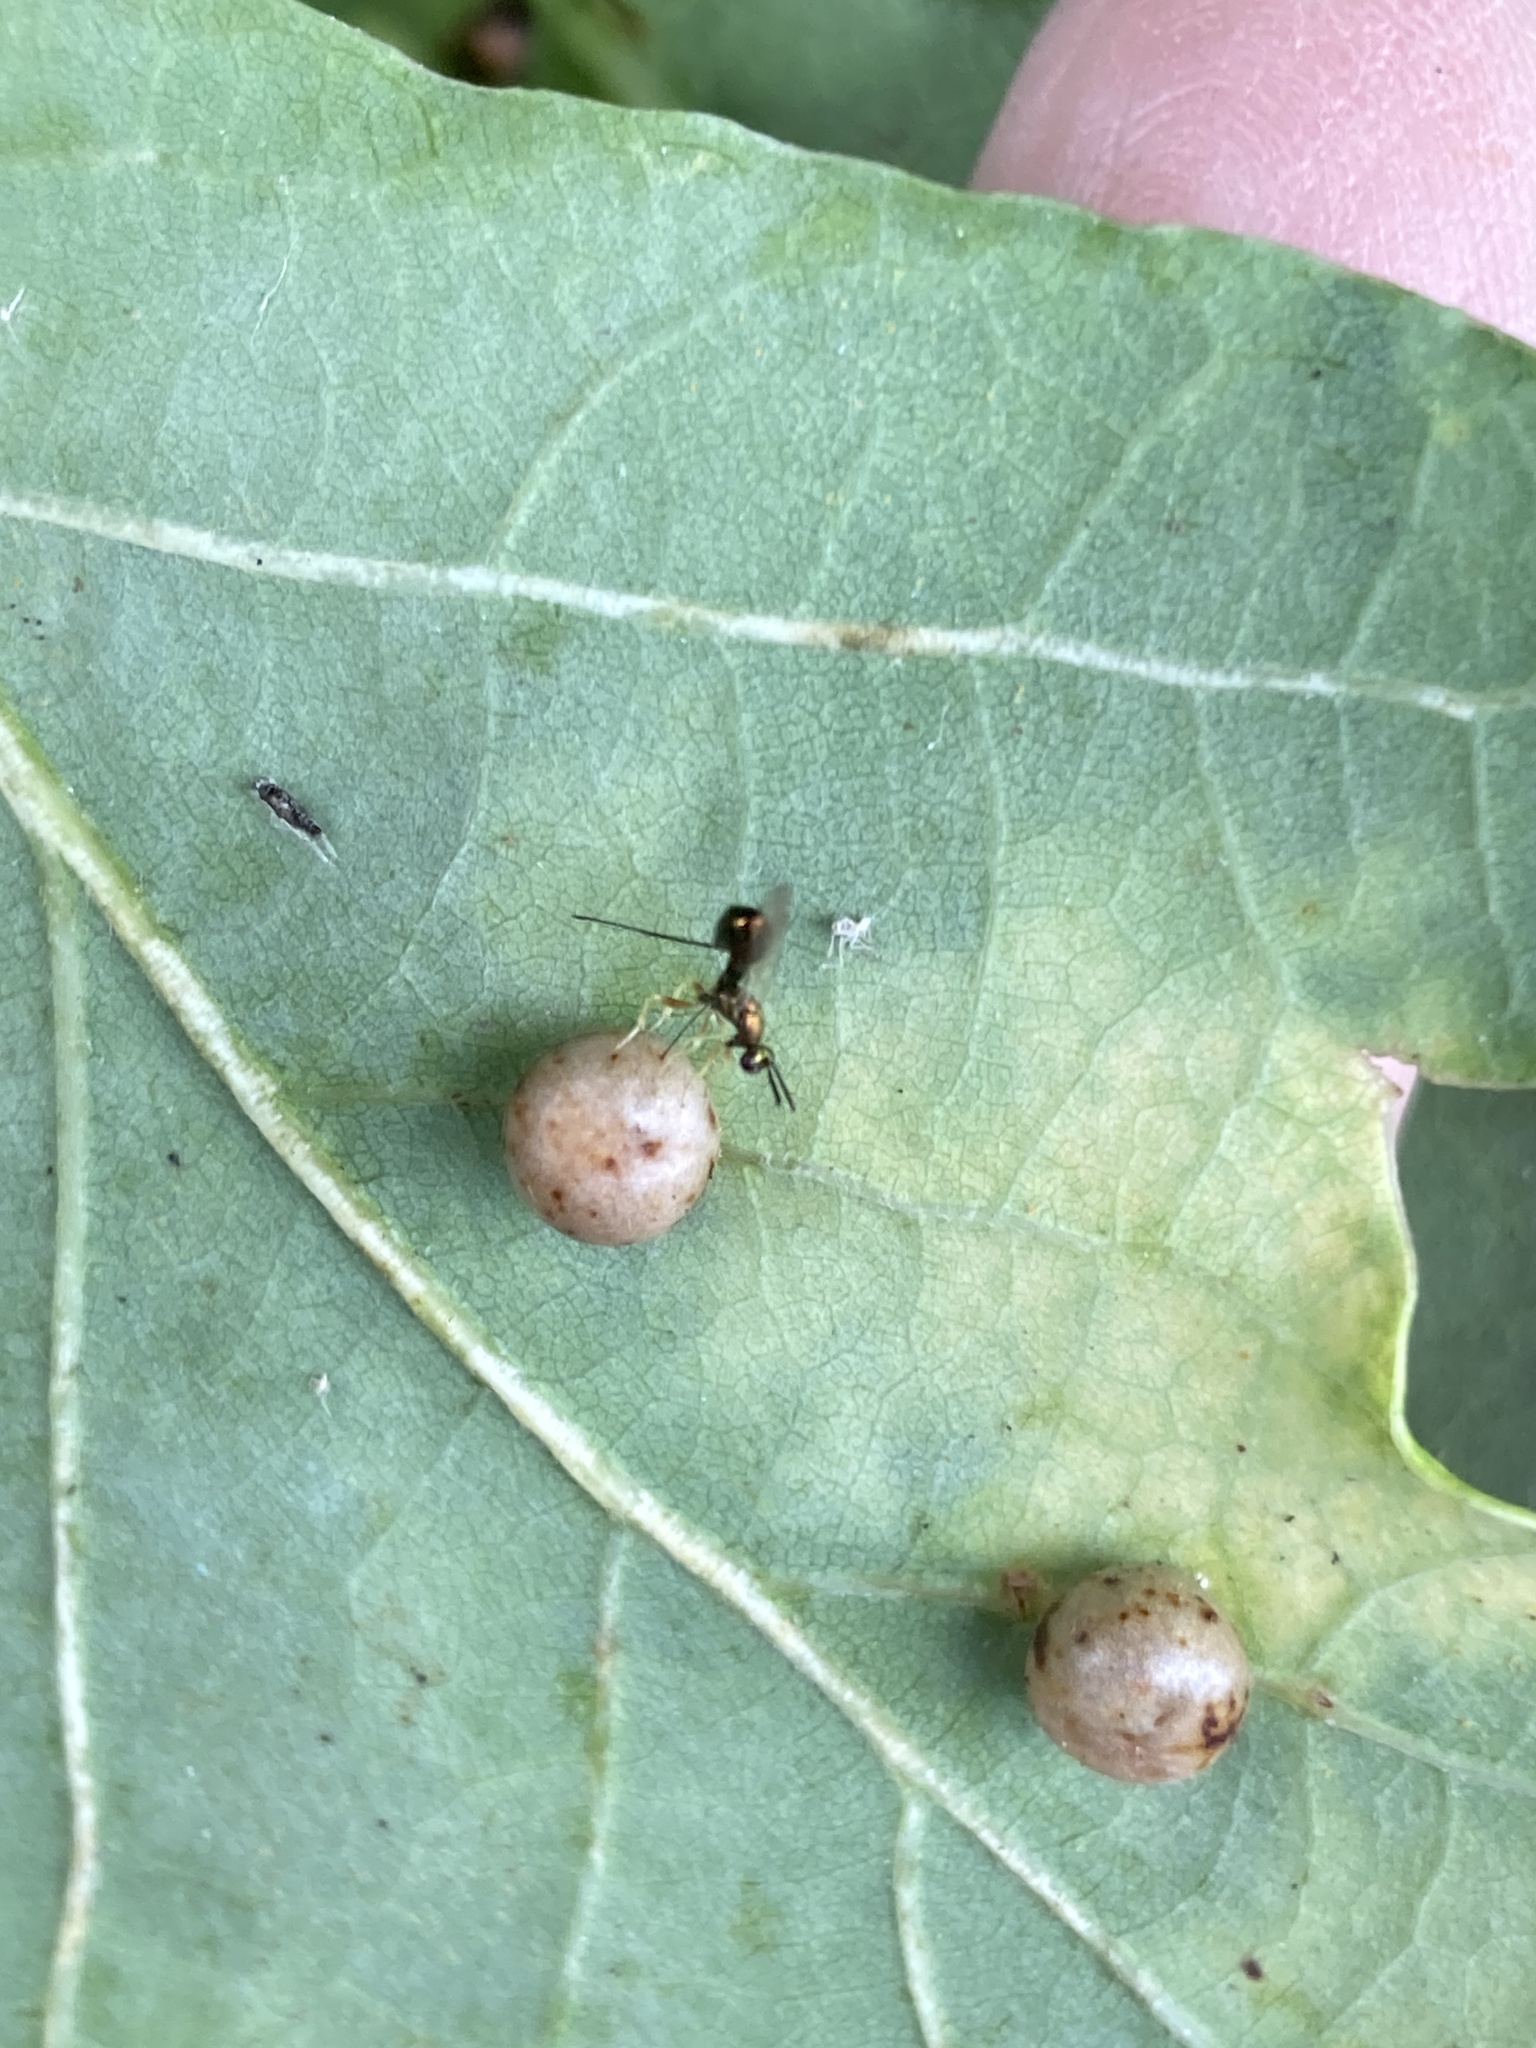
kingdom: Animalia
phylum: Arthropoda
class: Insecta
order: Hymenoptera
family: Cynipidae
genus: Cynips
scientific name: Cynips divisa
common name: Red currant gall
